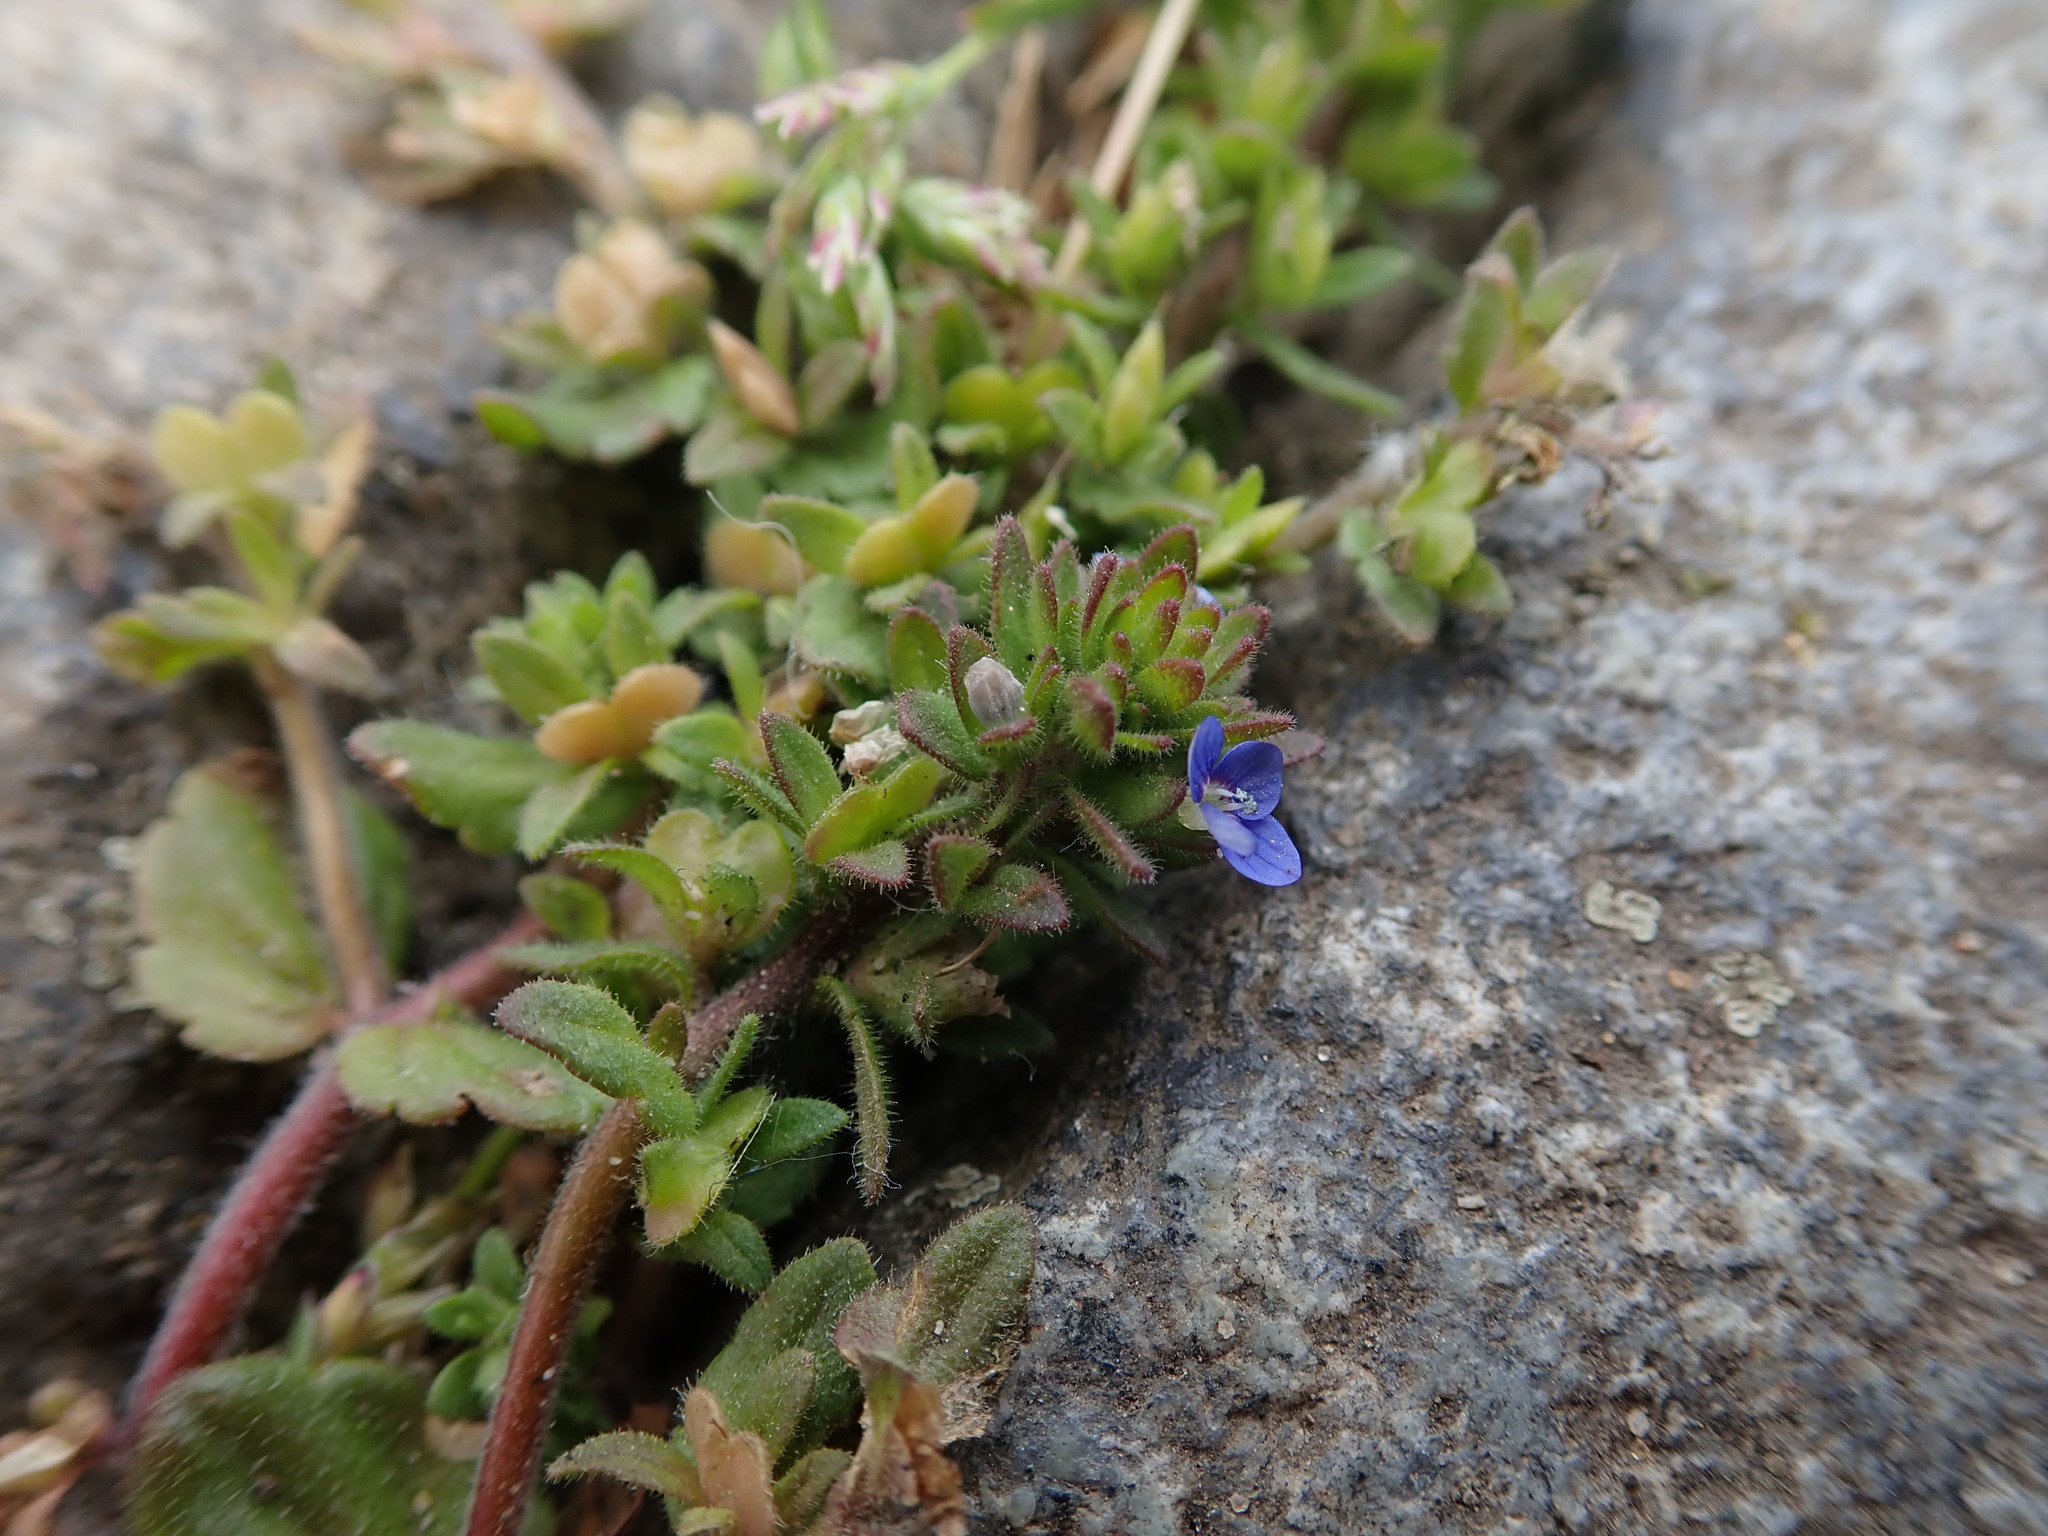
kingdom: Plantae
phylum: Tracheophyta
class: Magnoliopsida
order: Lamiales
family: Plantaginaceae
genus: Veronica
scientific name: Veronica arvensis
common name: Corn speedwell
